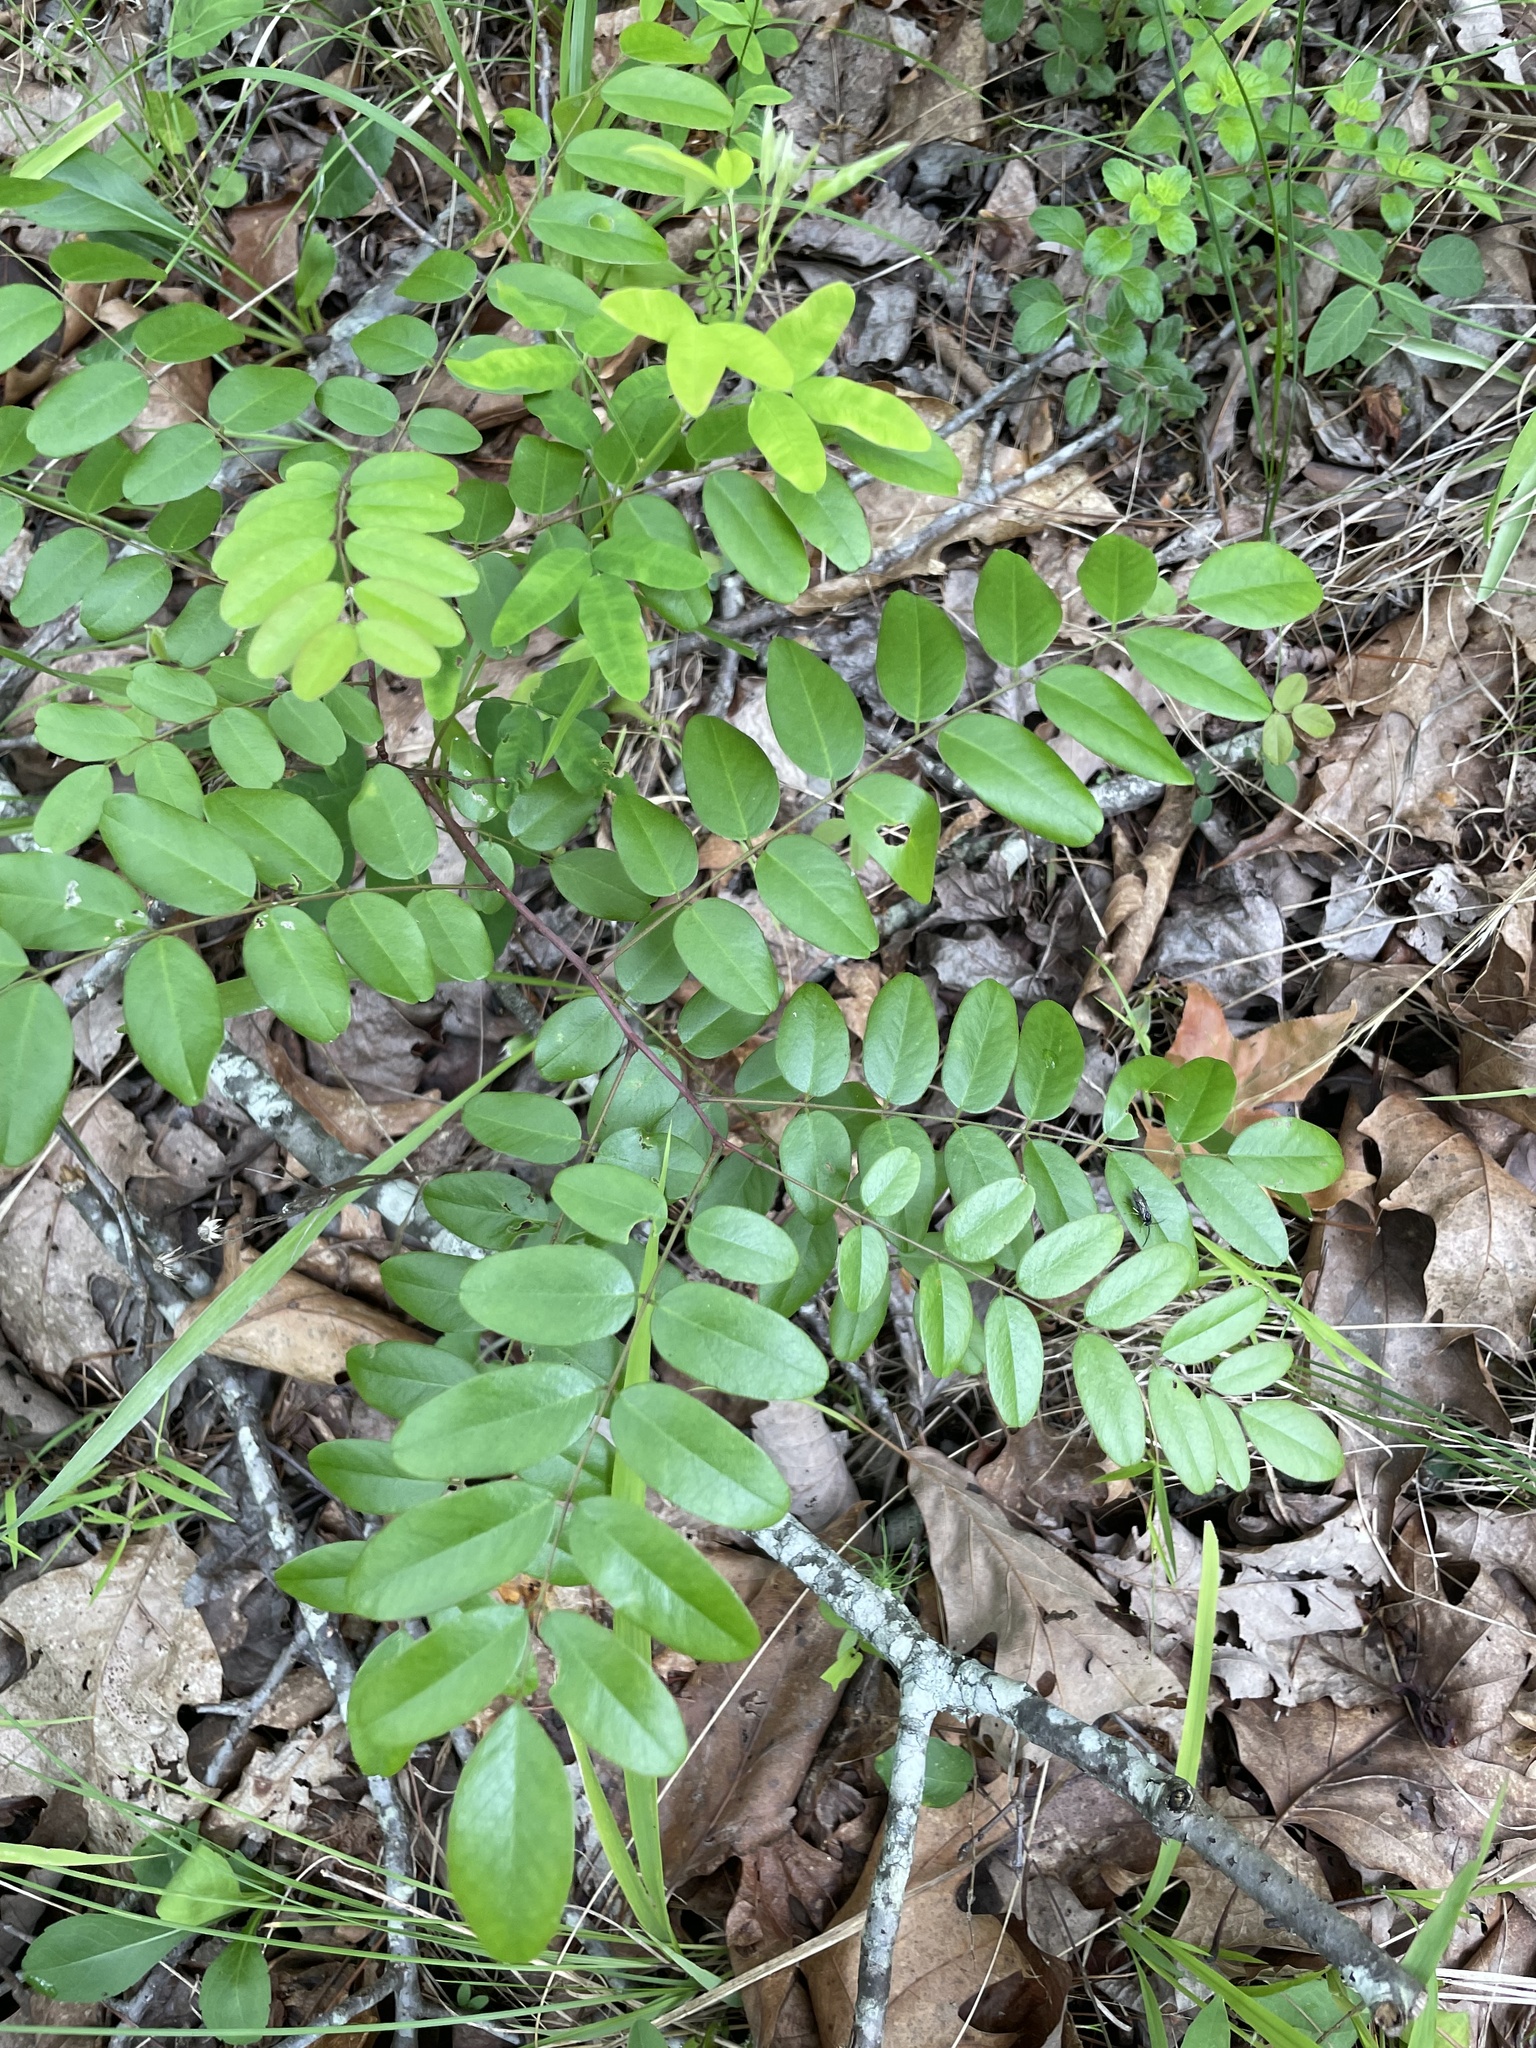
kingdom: Plantae
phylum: Tracheophyta
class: Magnoliopsida
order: Fabales
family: Fabaceae
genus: Amorpha
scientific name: Amorpha glabra
